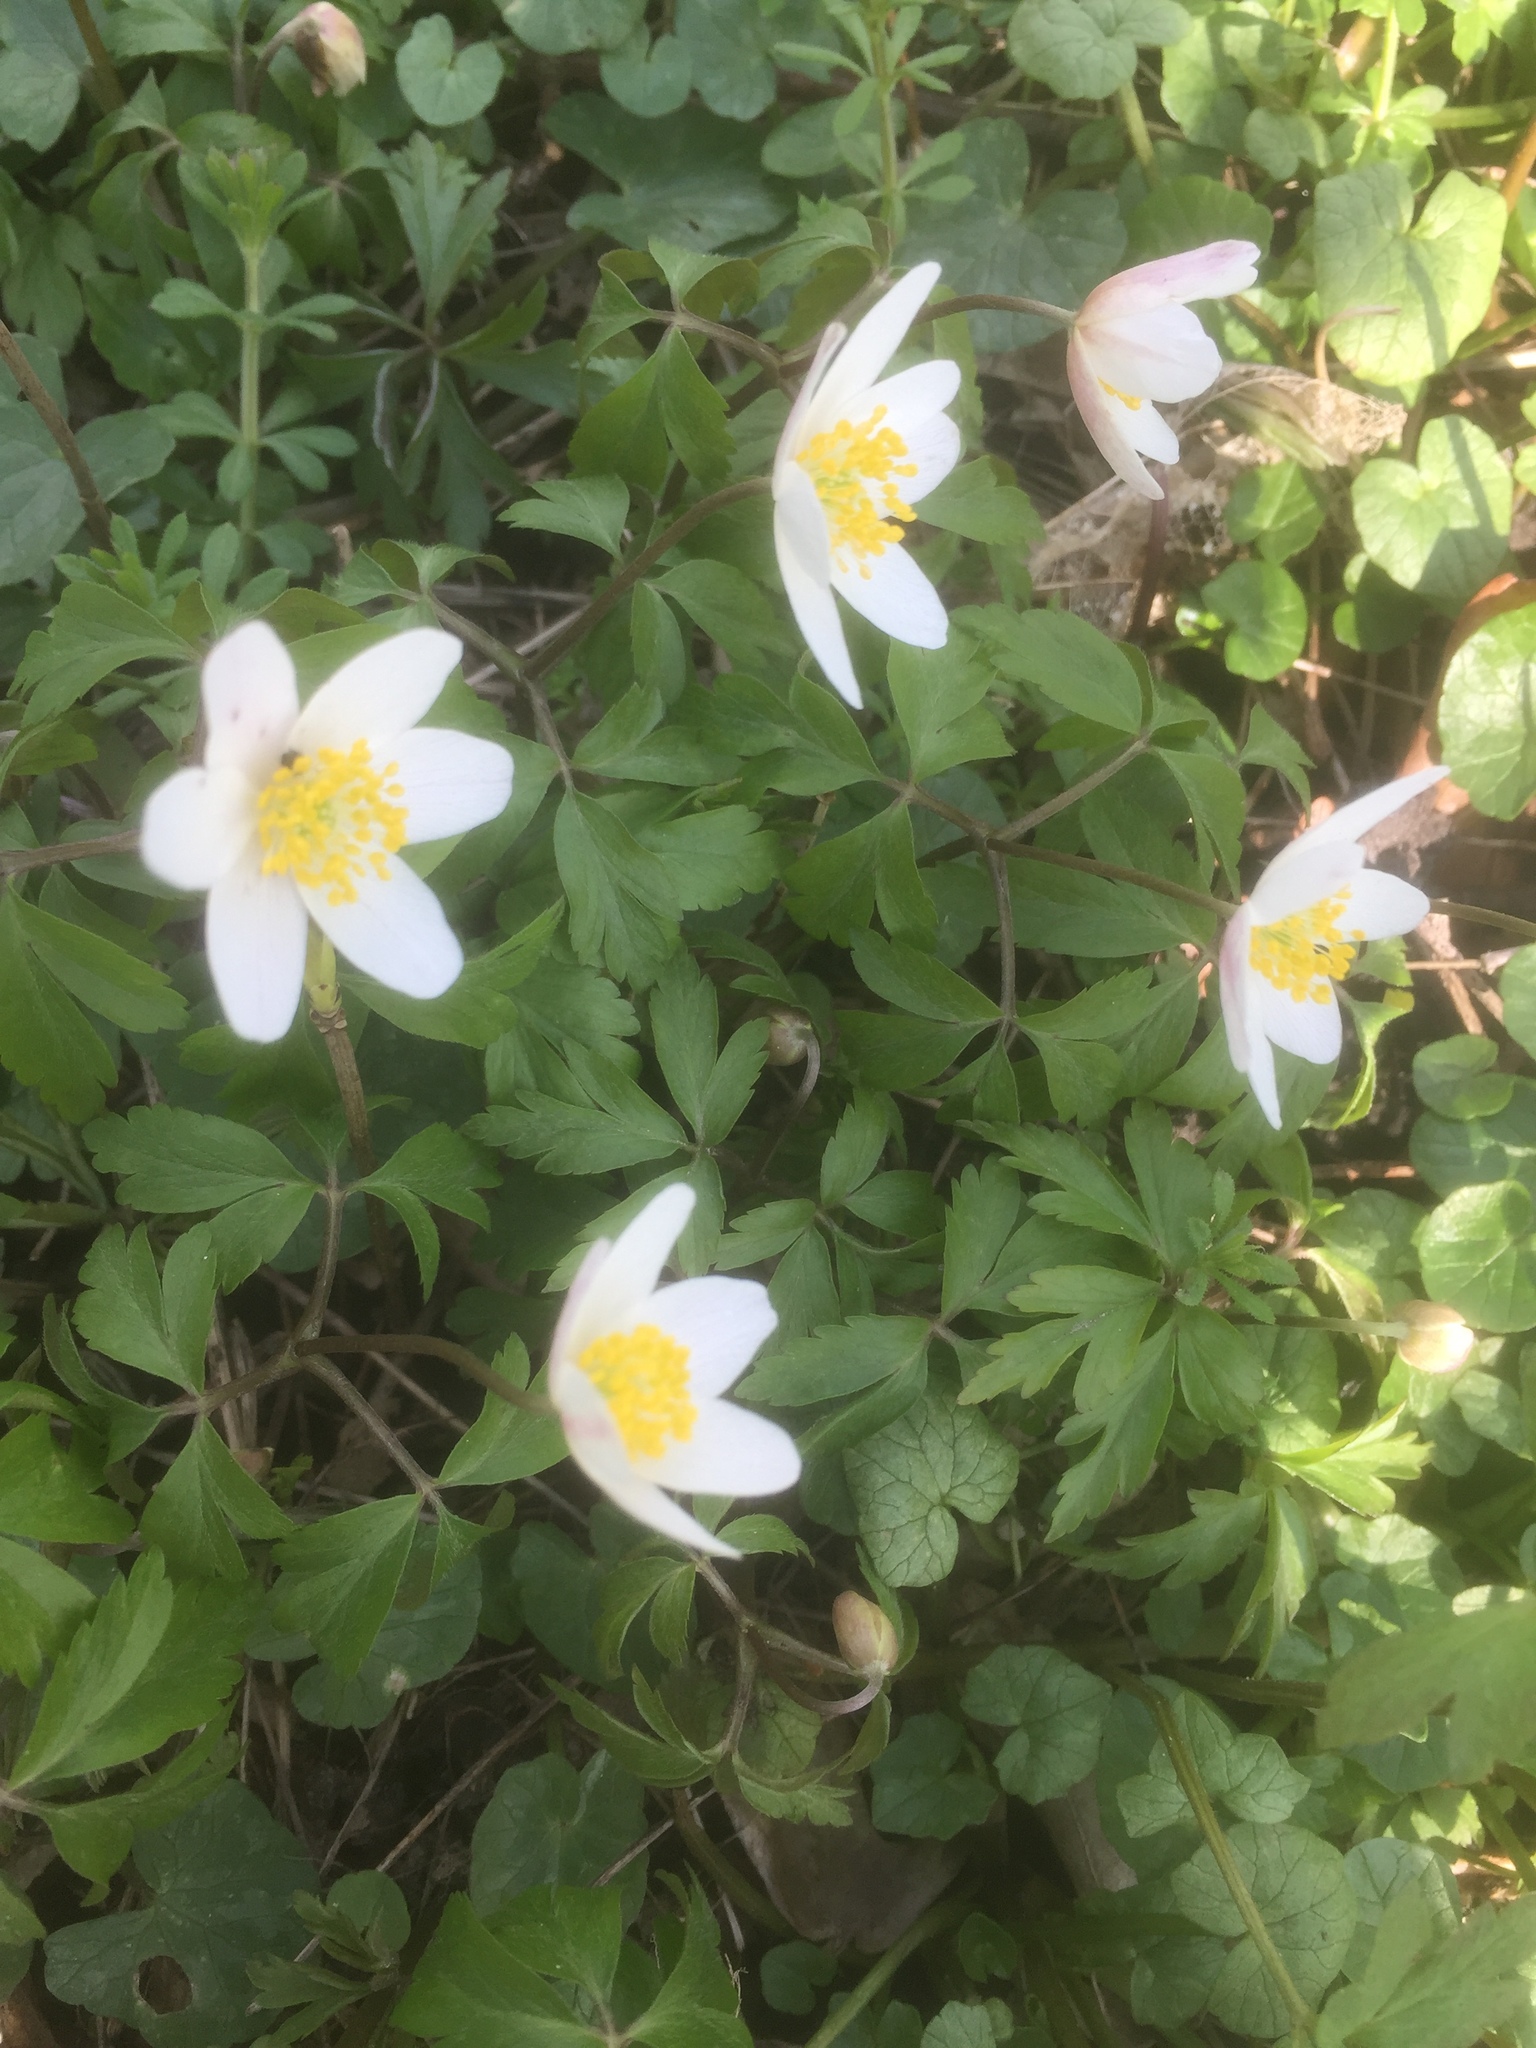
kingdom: Plantae
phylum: Tracheophyta
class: Magnoliopsida
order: Ranunculales
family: Ranunculaceae
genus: Anemone
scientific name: Anemone nemorosa
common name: Wood anemone
